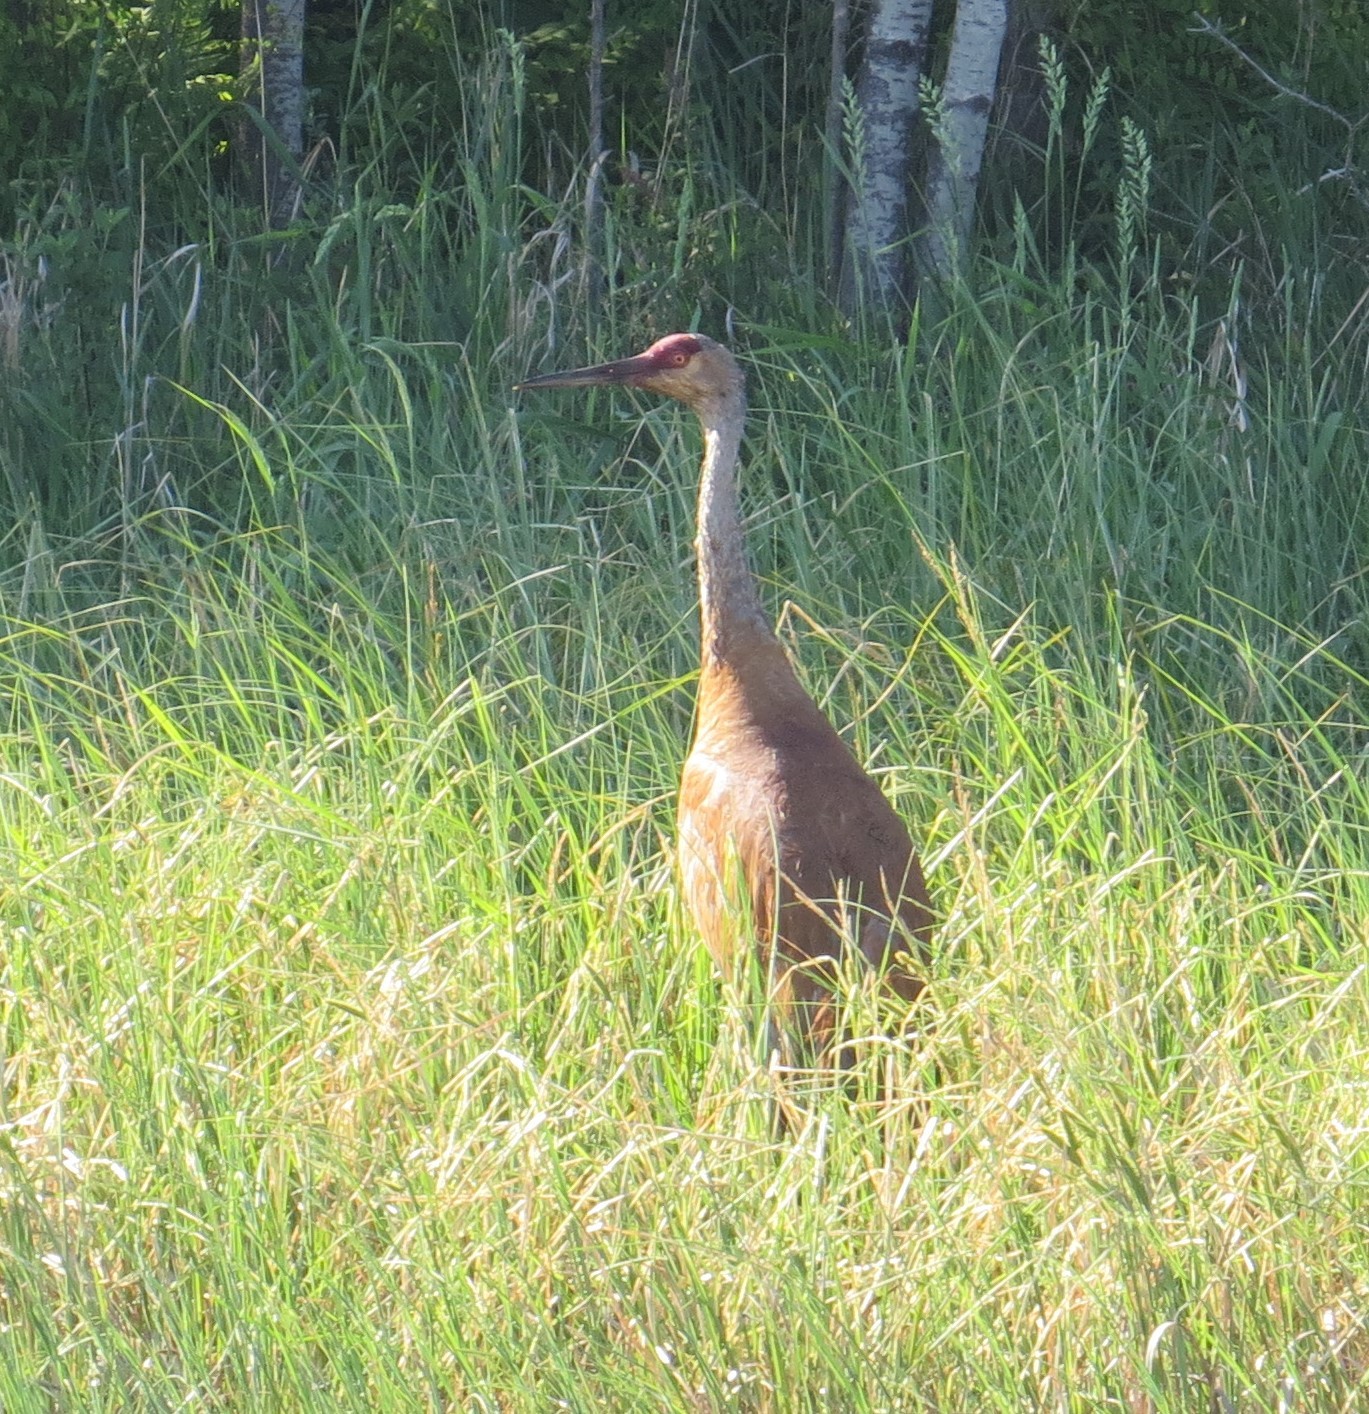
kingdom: Animalia
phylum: Chordata
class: Aves
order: Gruiformes
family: Gruidae
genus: Grus
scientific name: Grus canadensis
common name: Sandhill crane
